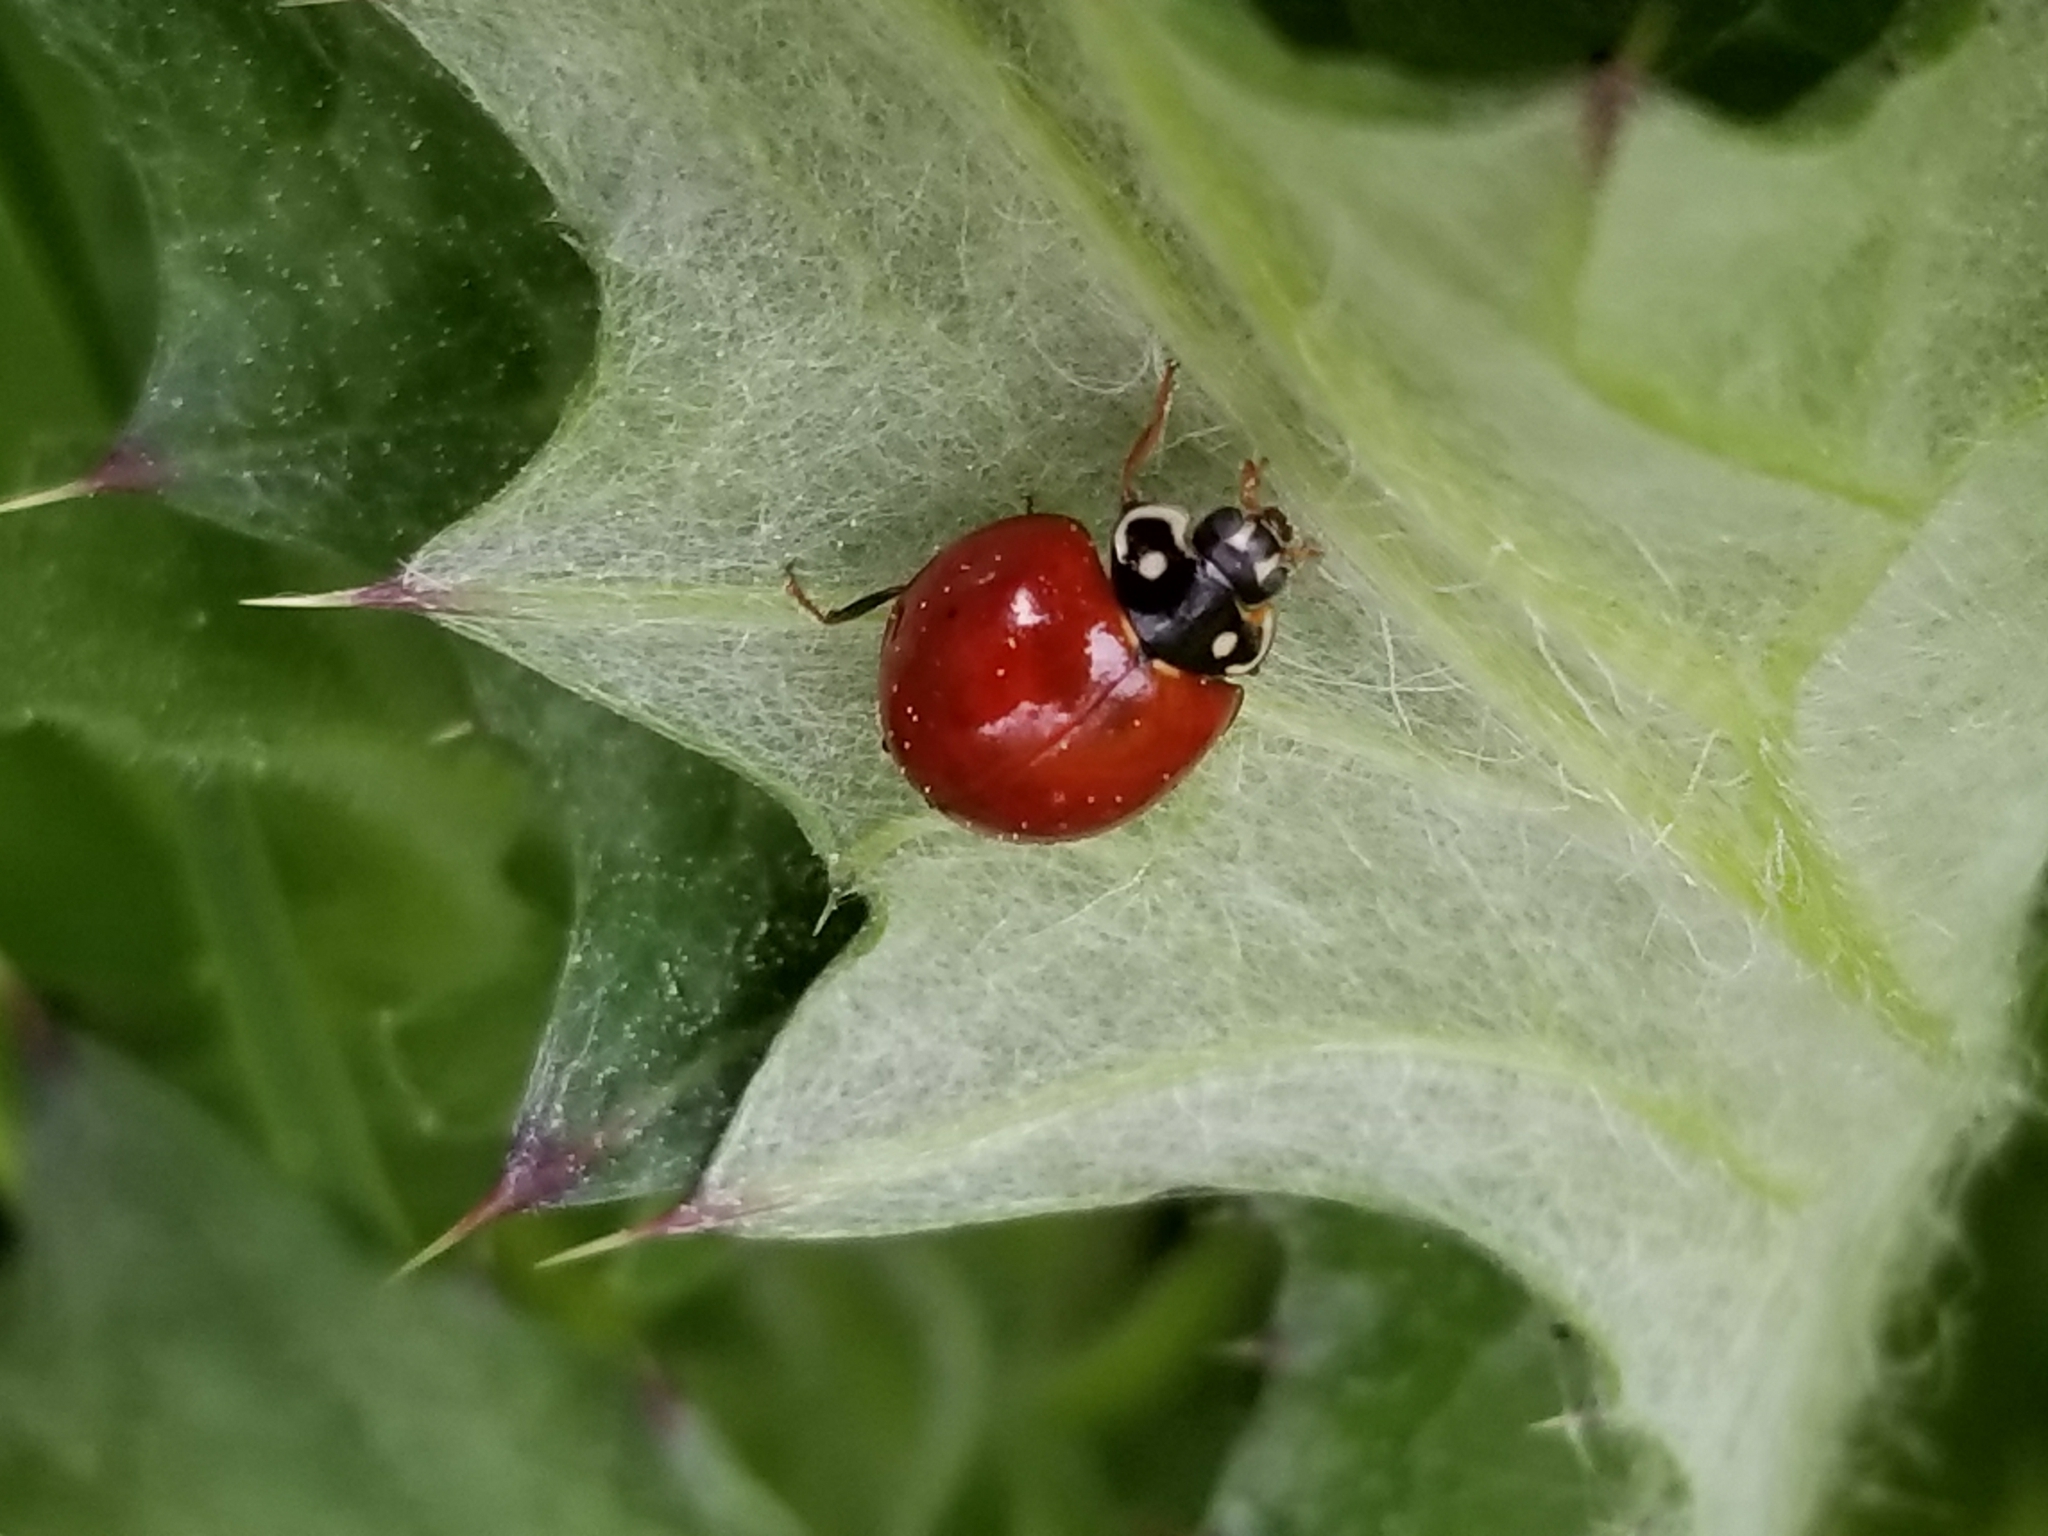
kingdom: Animalia
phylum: Arthropoda
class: Insecta
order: Coleoptera
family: Coccinellidae
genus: Cycloneda
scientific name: Cycloneda sanguinea
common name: Ladybird beetle
